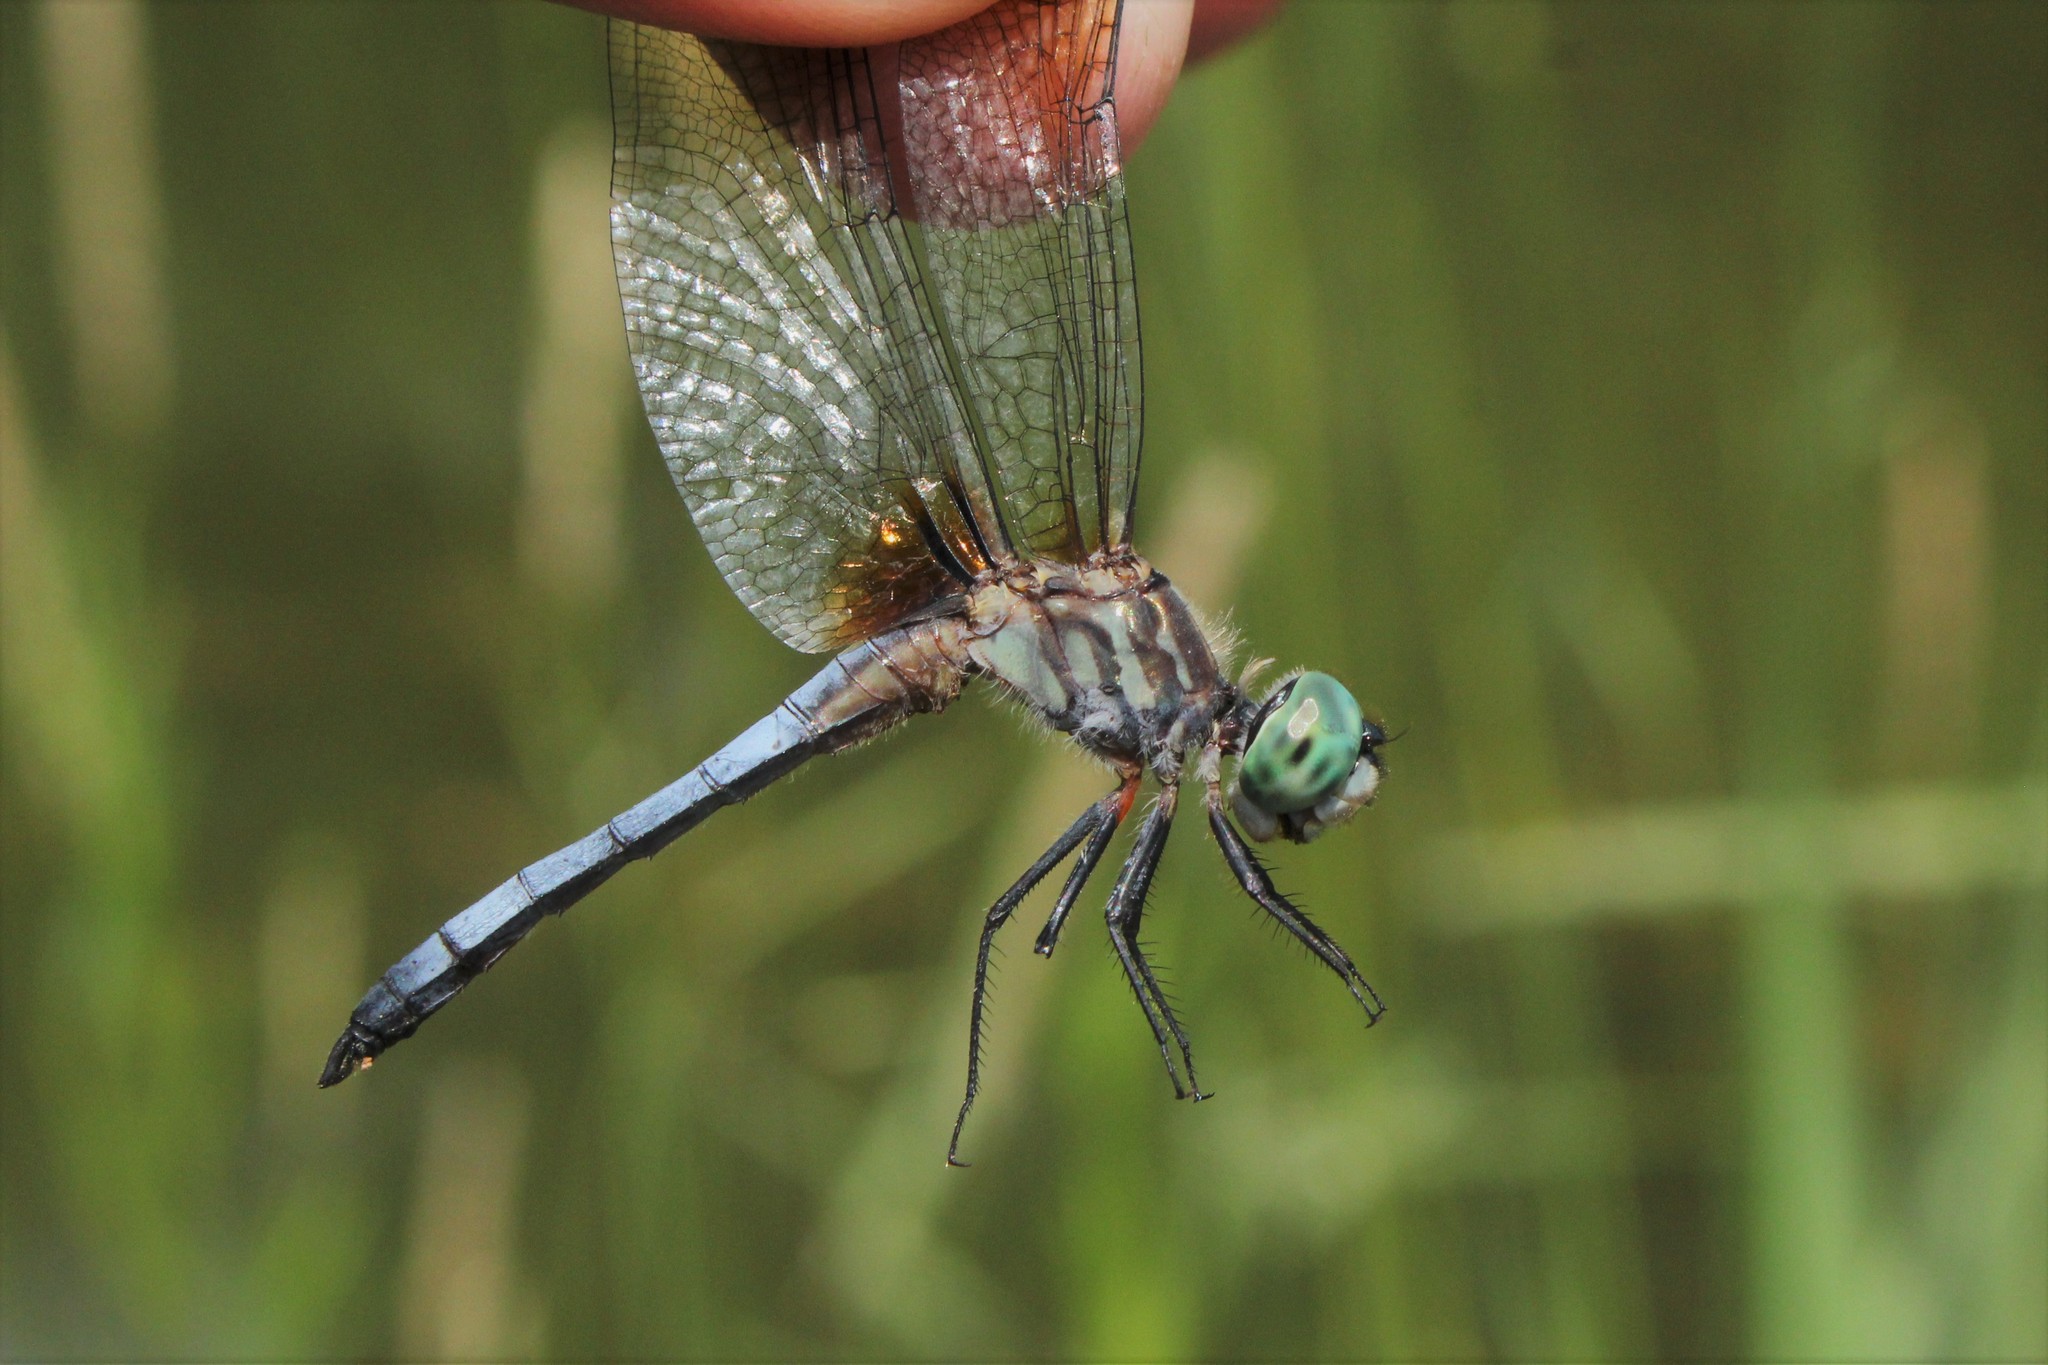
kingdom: Animalia
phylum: Arthropoda
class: Insecta
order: Odonata
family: Libellulidae
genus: Pachydiplax
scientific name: Pachydiplax longipennis
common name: Blue dasher
